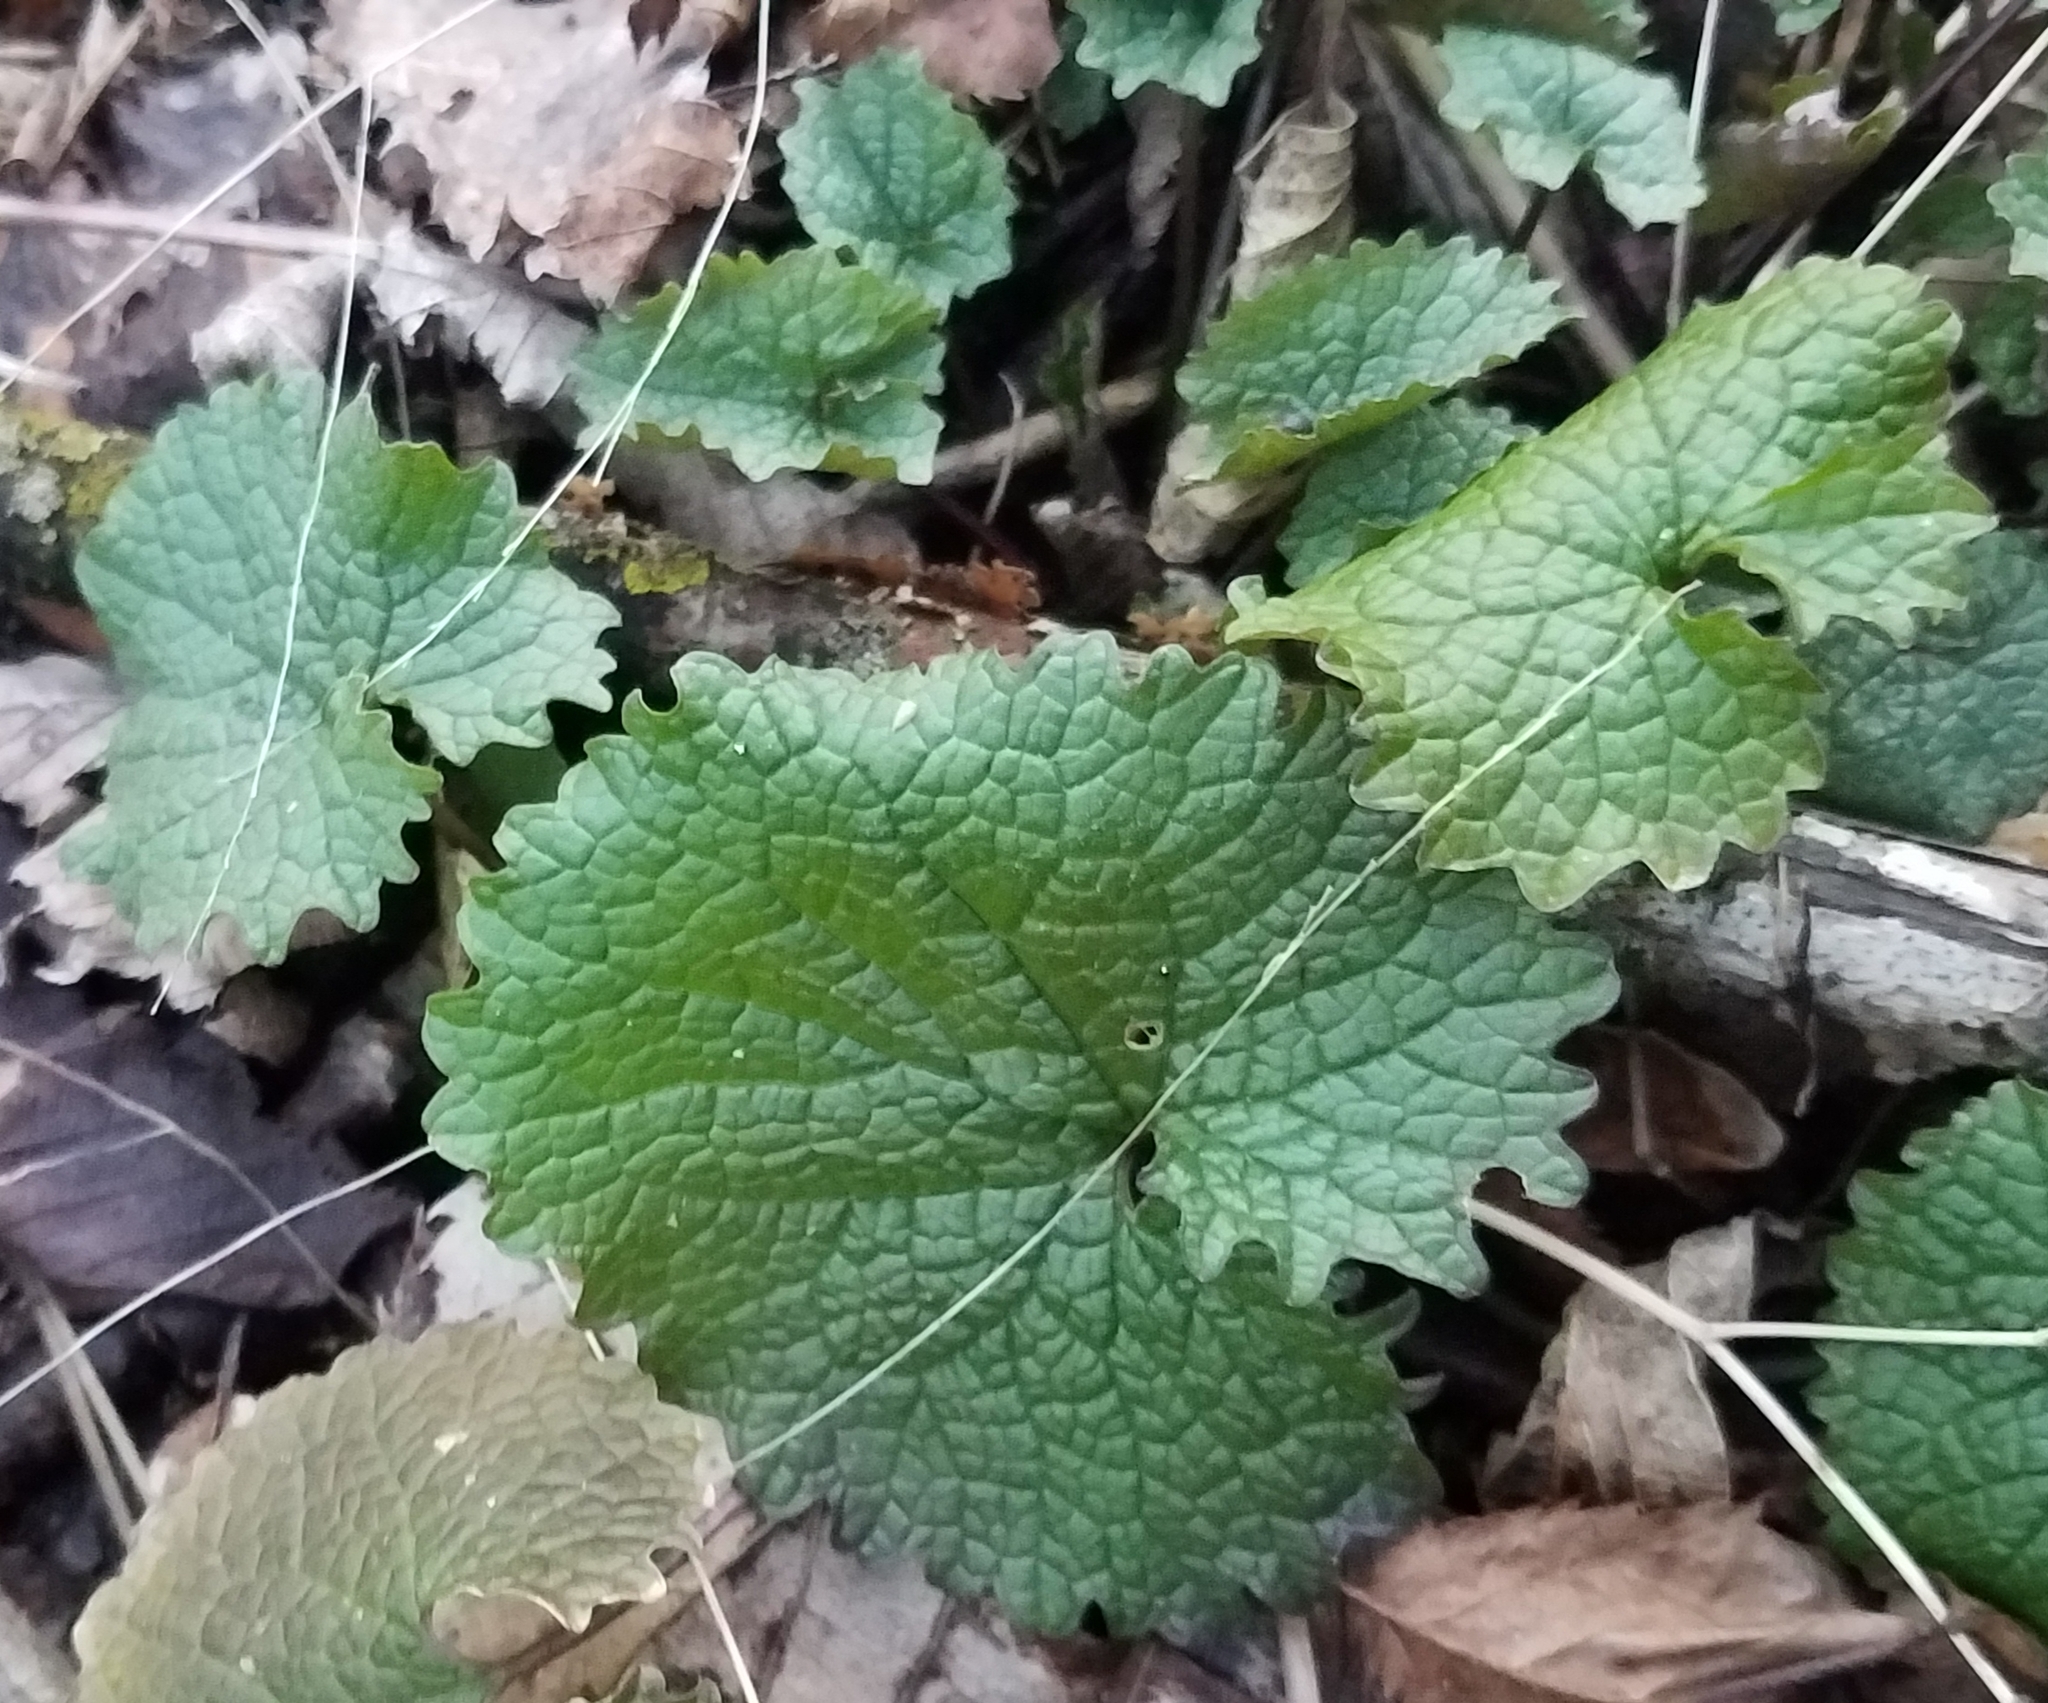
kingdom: Plantae
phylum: Tracheophyta
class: Magnoliopsida
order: Brassicales
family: Brassicaceae
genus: Alliaria
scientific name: Alliaria petiolata
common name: Garlic mustard
